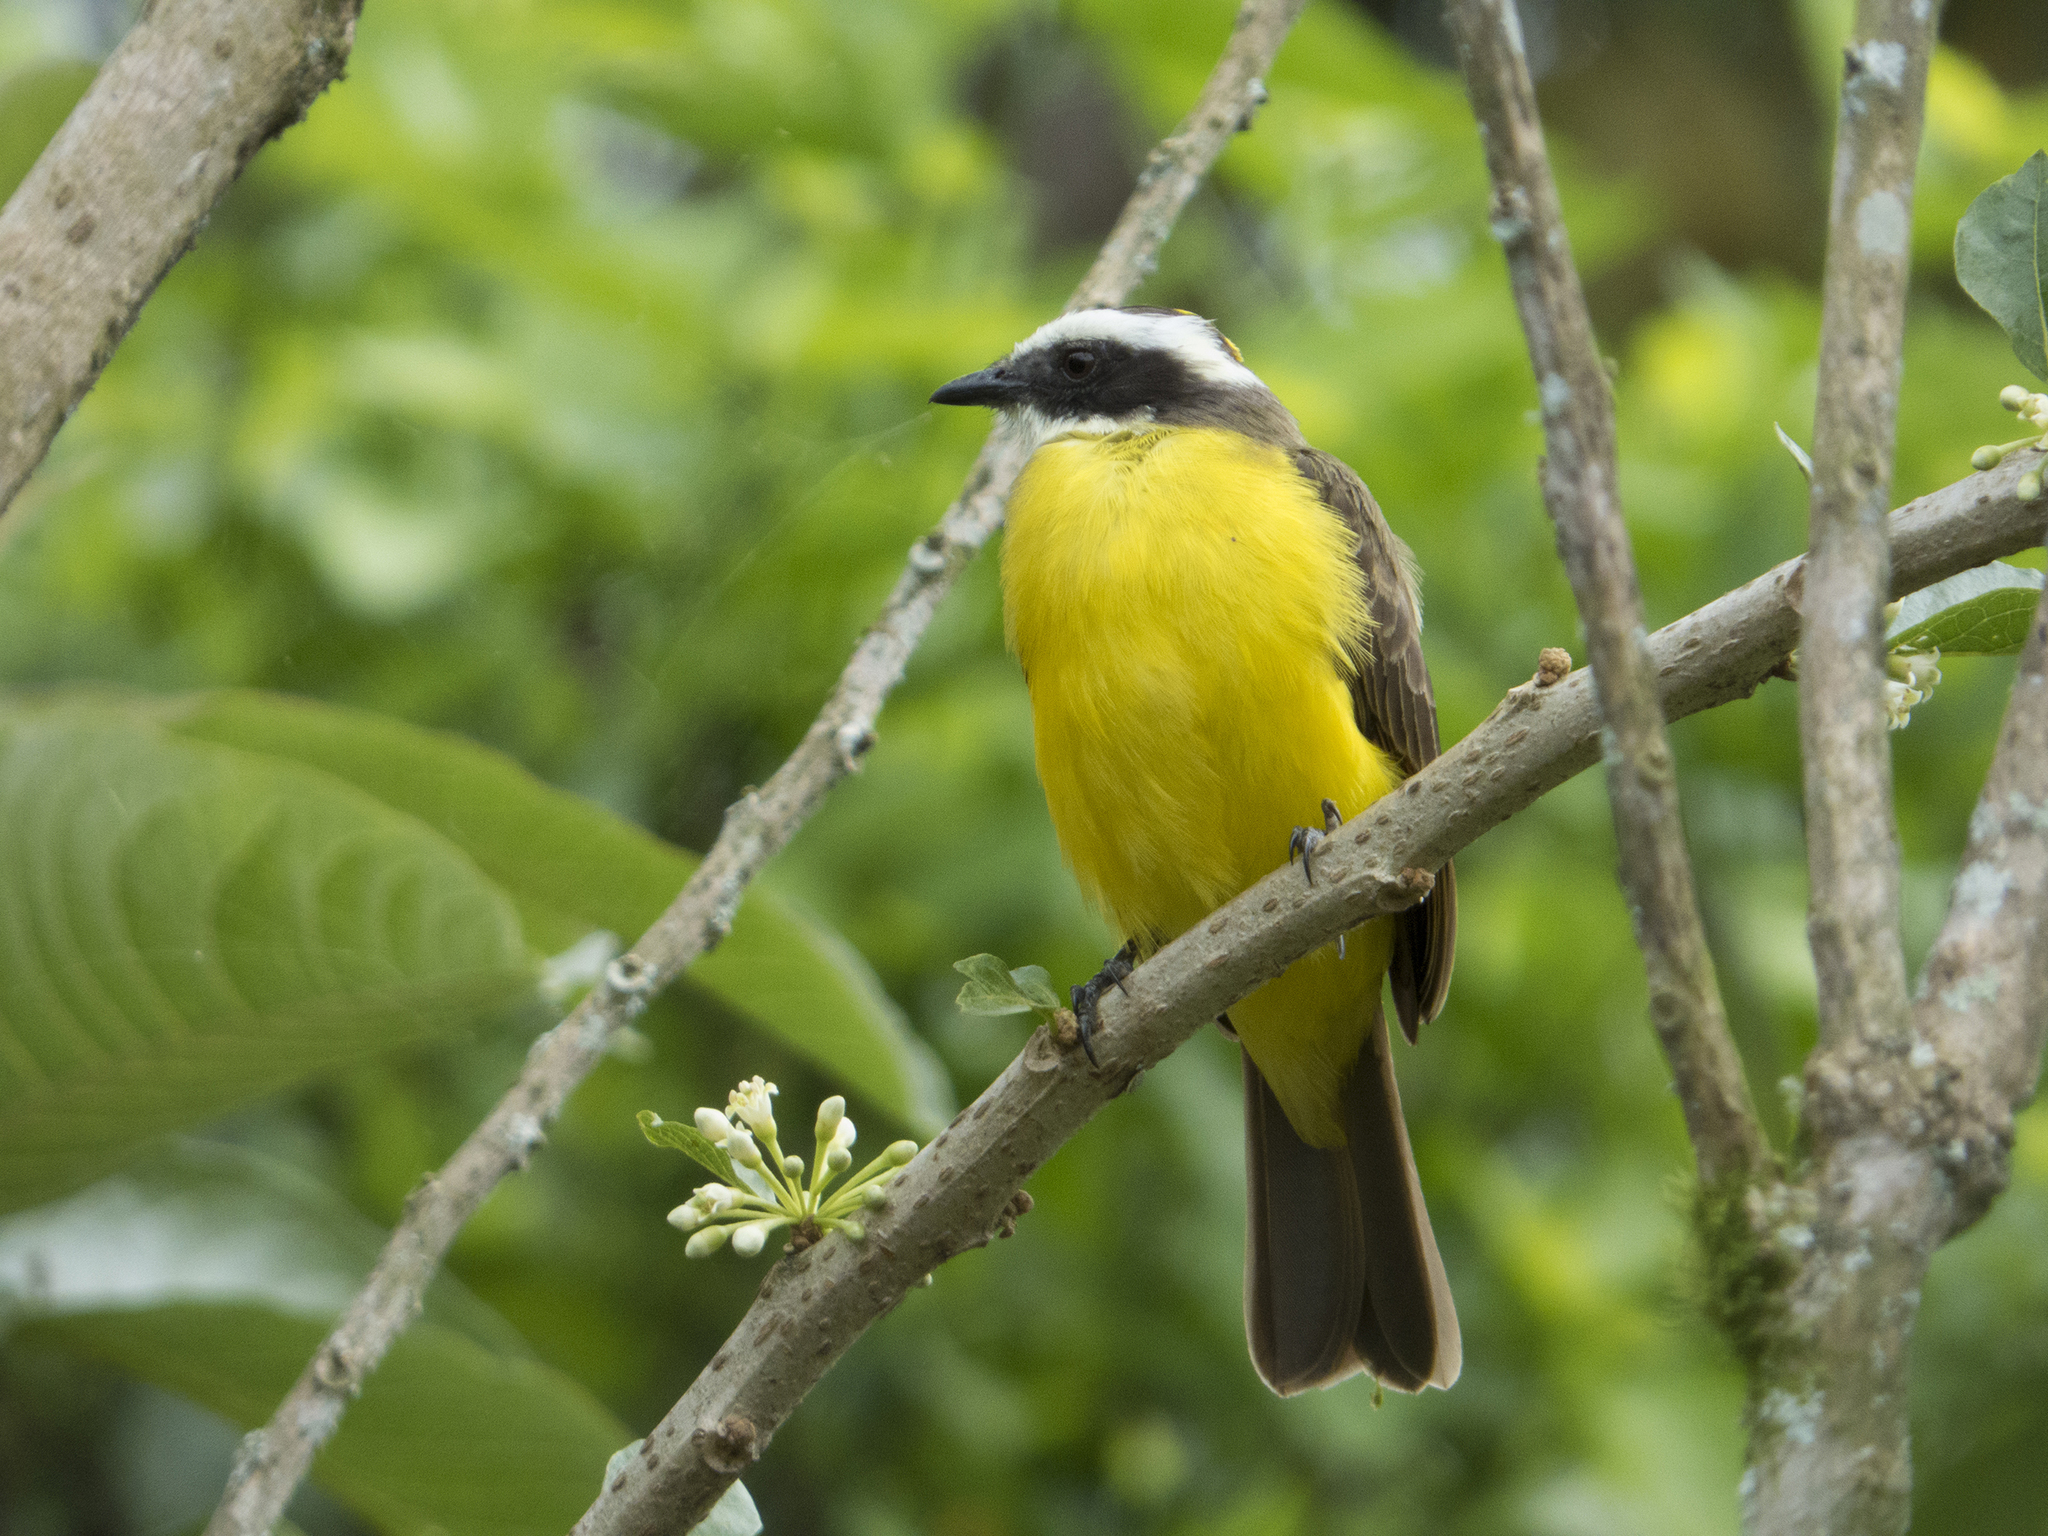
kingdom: Animalia
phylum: Chordata
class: Aves
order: Passeriformes
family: Tyrannidae
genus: Myiozetetes
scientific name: Myiozetetes similis
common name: Social flycatcher
